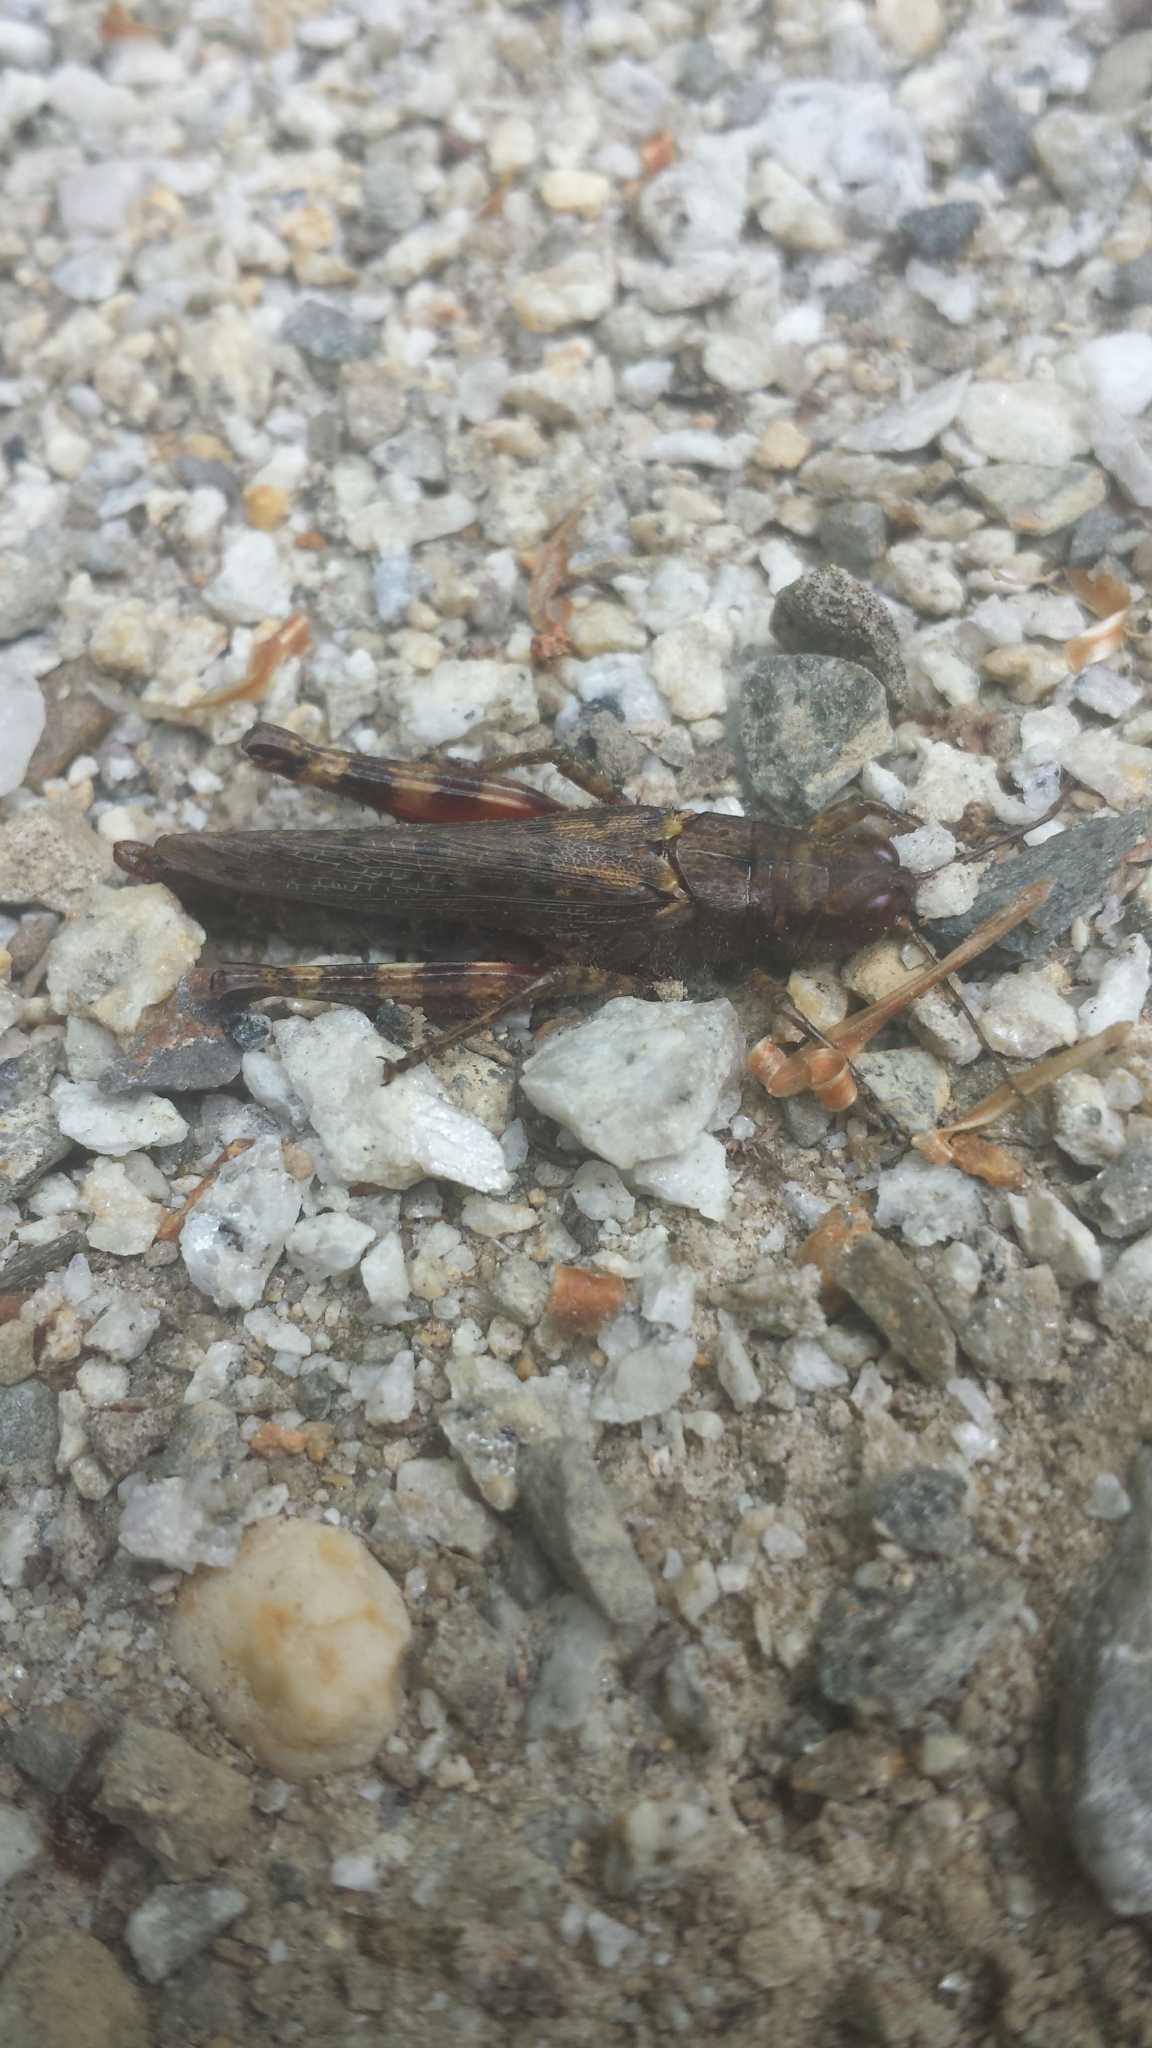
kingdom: Animalia
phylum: Arthropoda
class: Insecta
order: Orthoptera
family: Acrididae
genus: Melanoplus
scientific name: Melanoplus punctulatus
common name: Pine-tree spur-throat grasshopper
